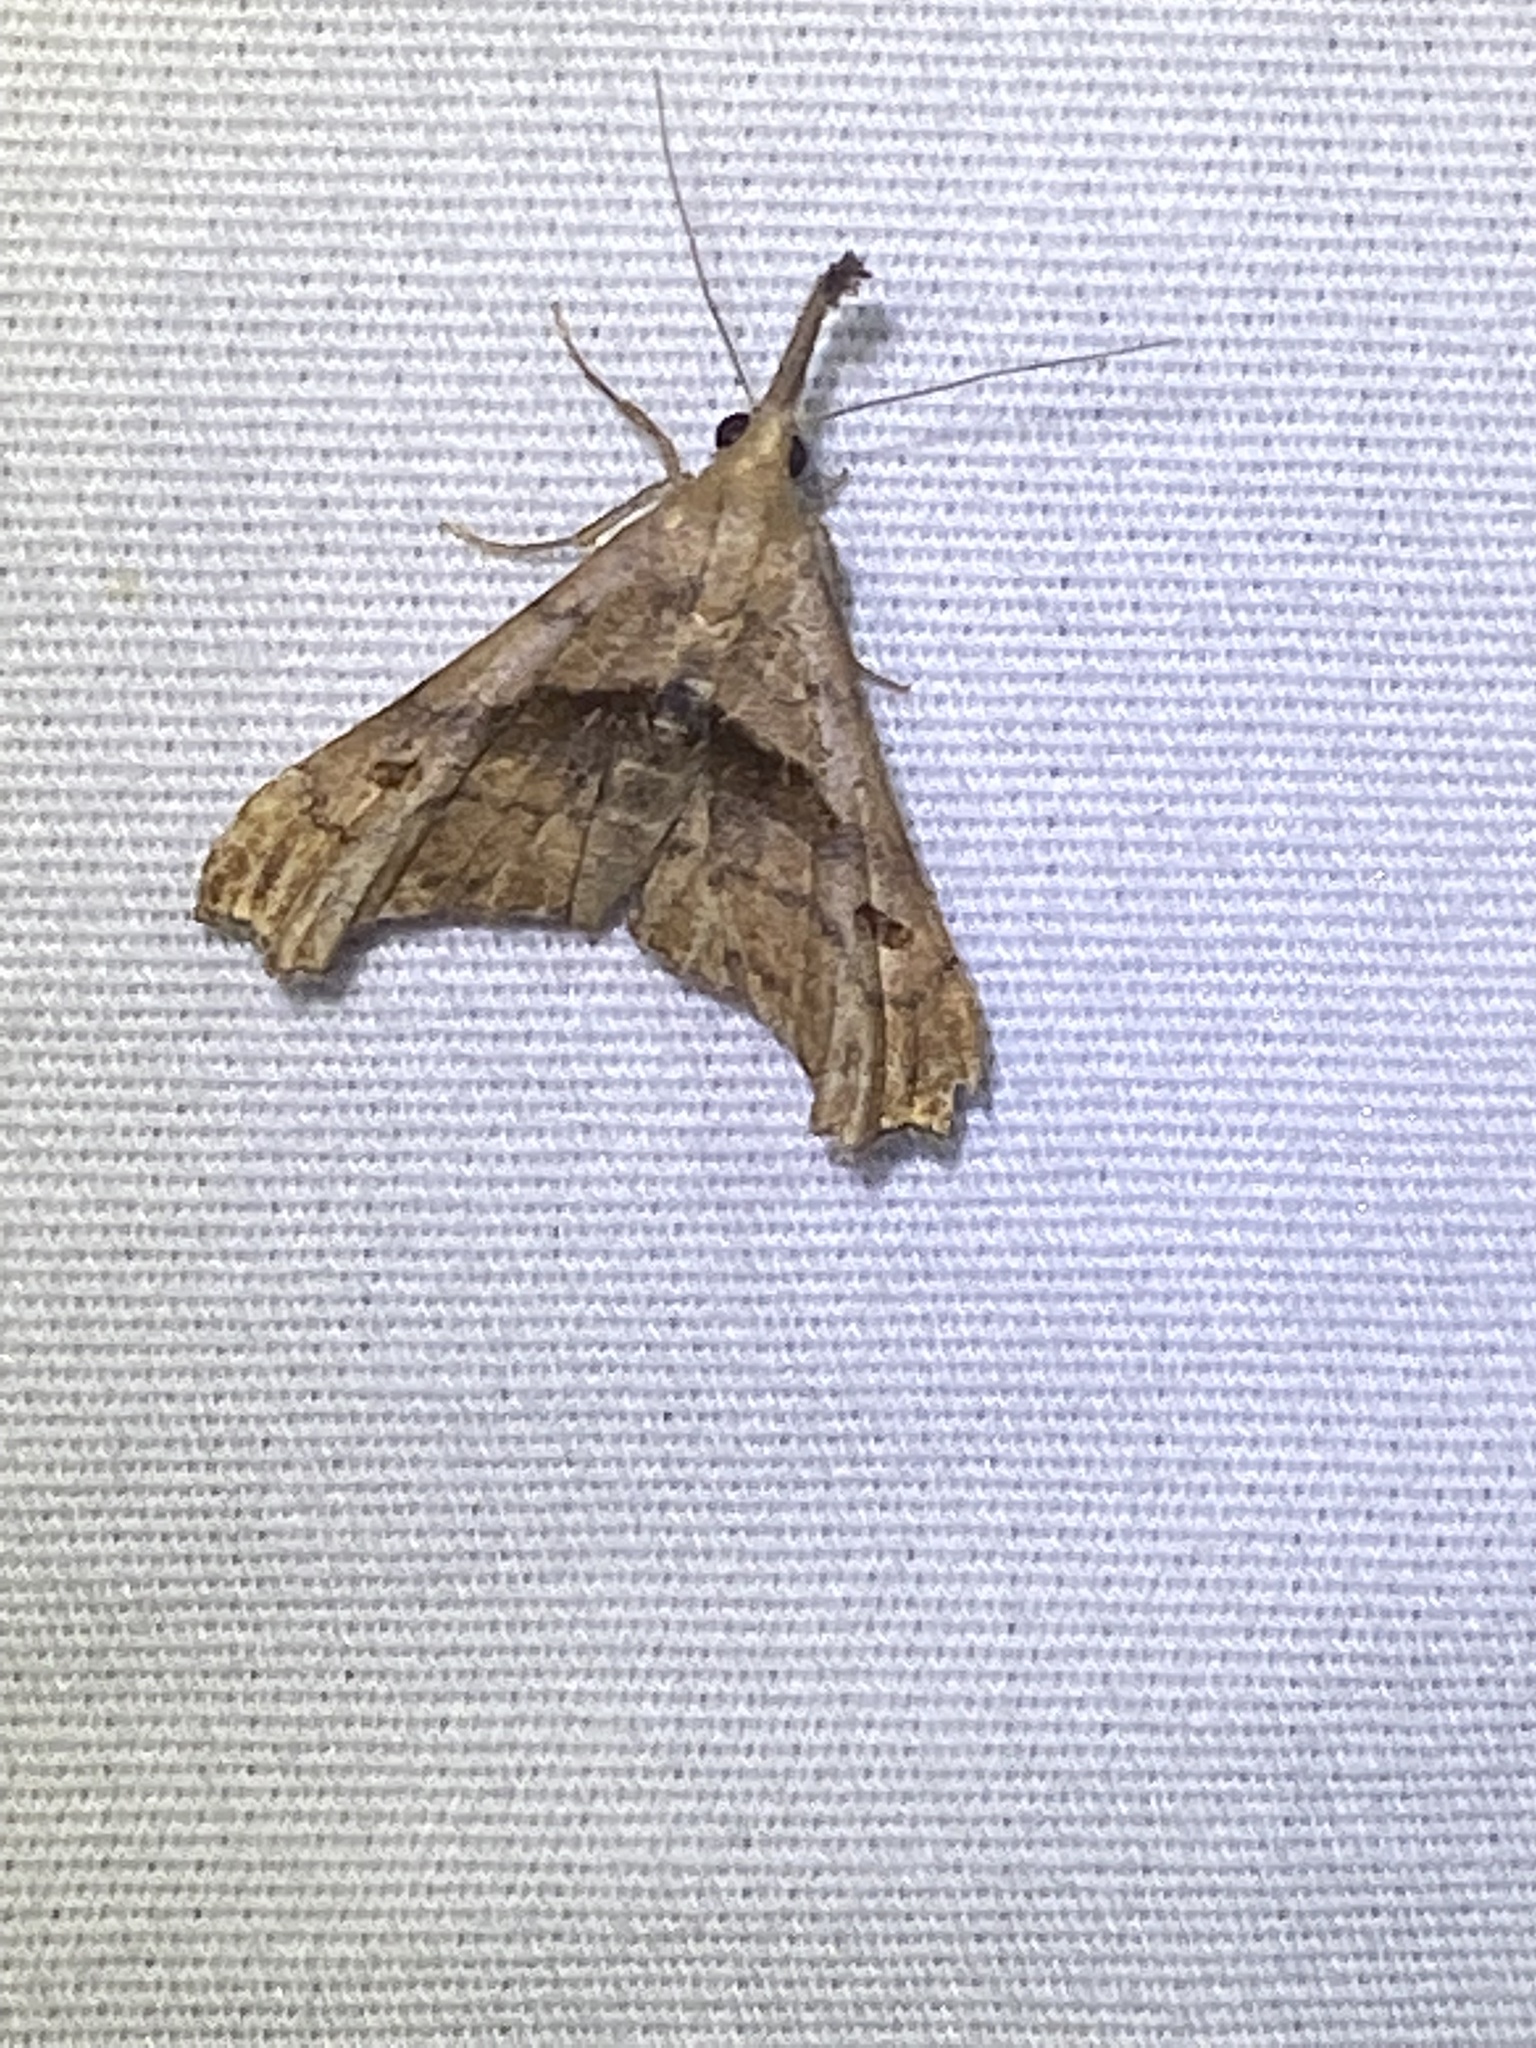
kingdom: Animalia
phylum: Arthropoda
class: Insecta
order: Lepidoptera
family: Erebidae
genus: Palthis
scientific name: Palthis angulalis
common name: Dark-spotted palthis moth
